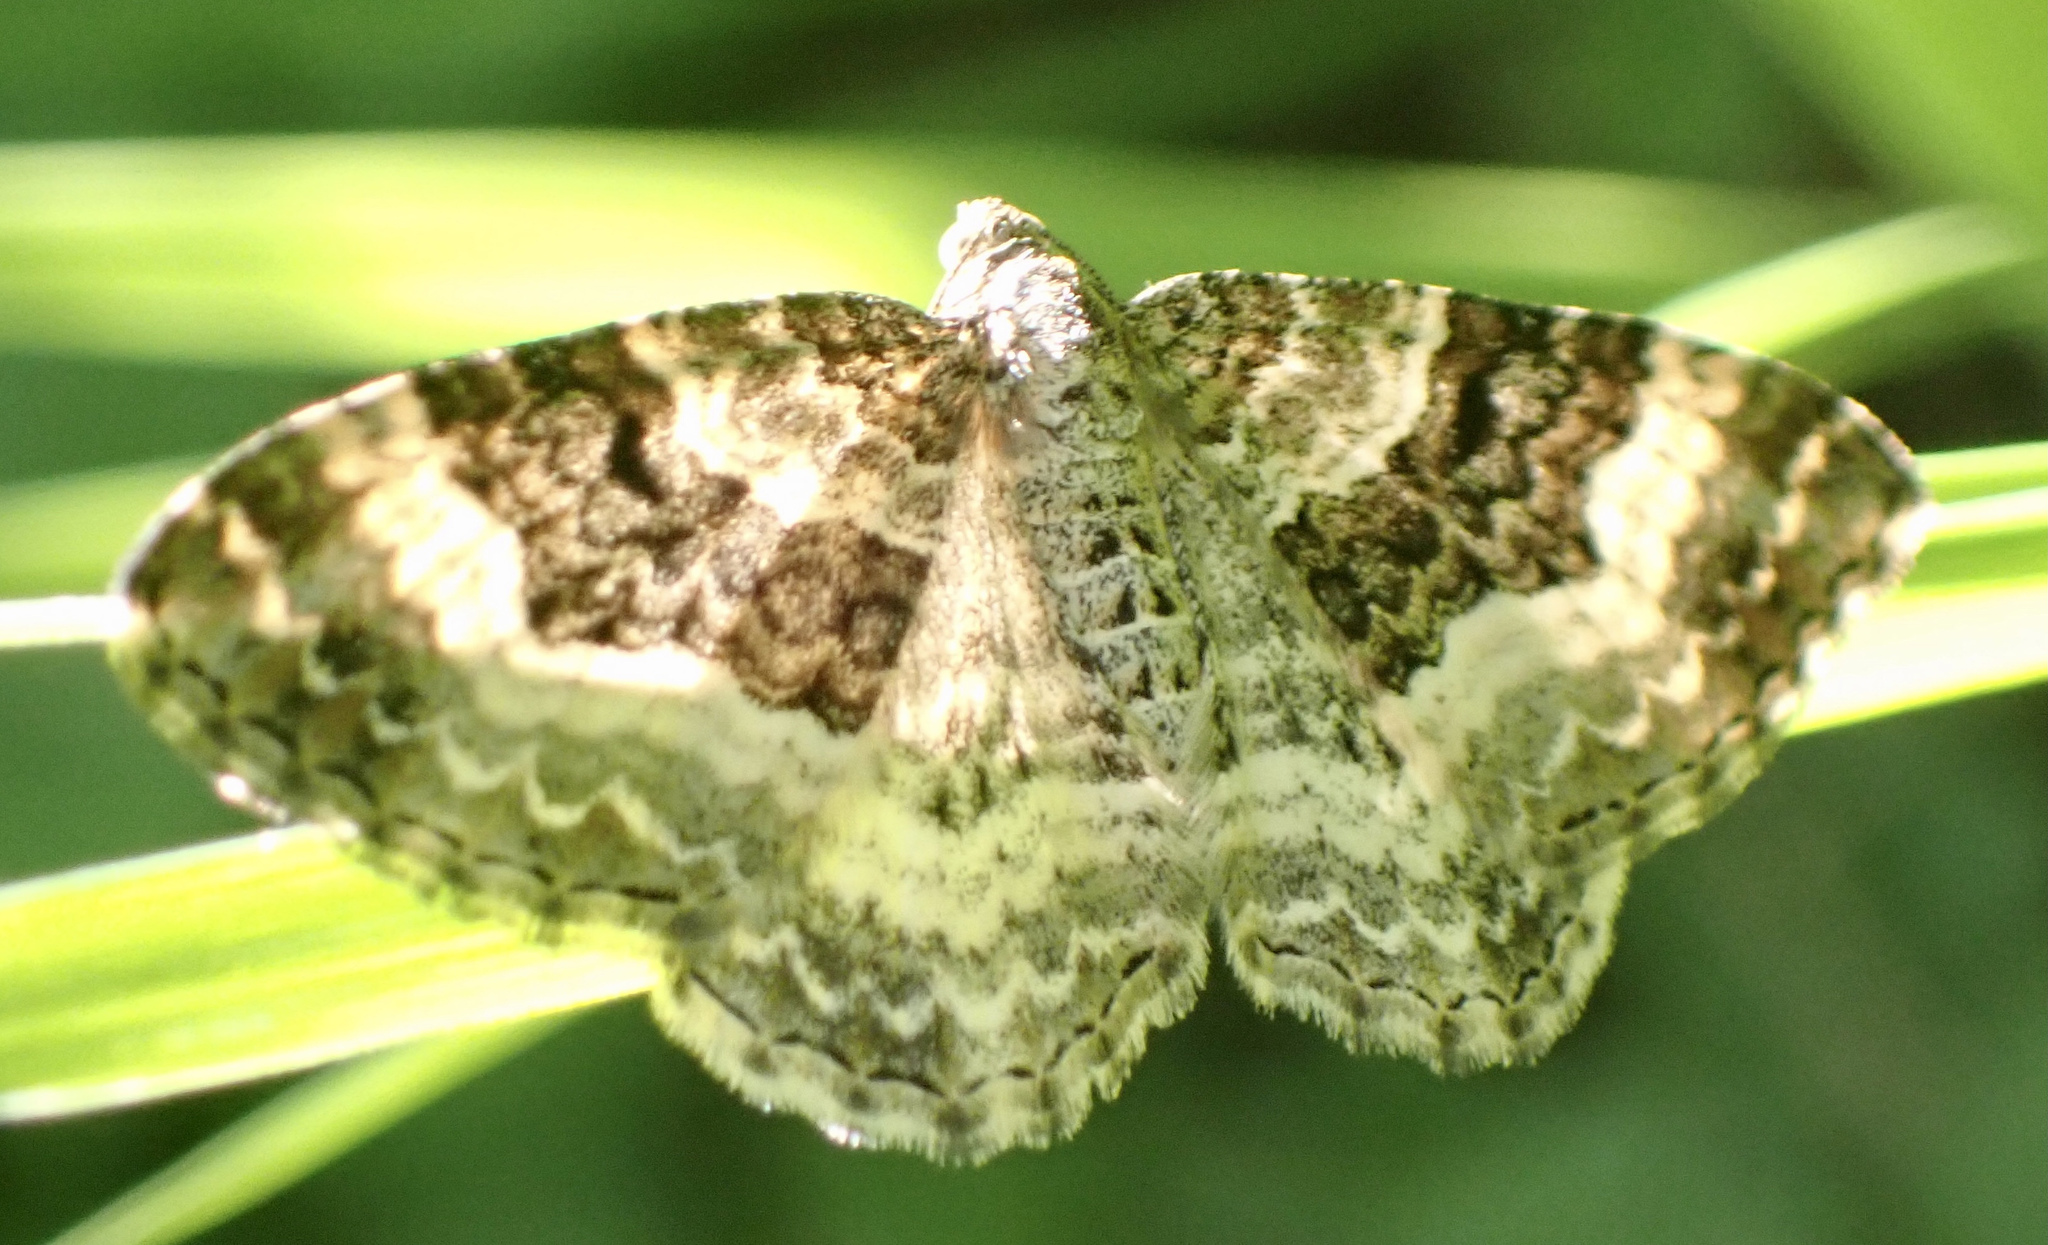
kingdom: Animalia
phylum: Arthropoda
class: Insecta
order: Lepidoptera
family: Geometridae
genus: Epirrhoe
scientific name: Epirrhoe alternata
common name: Common carpet
